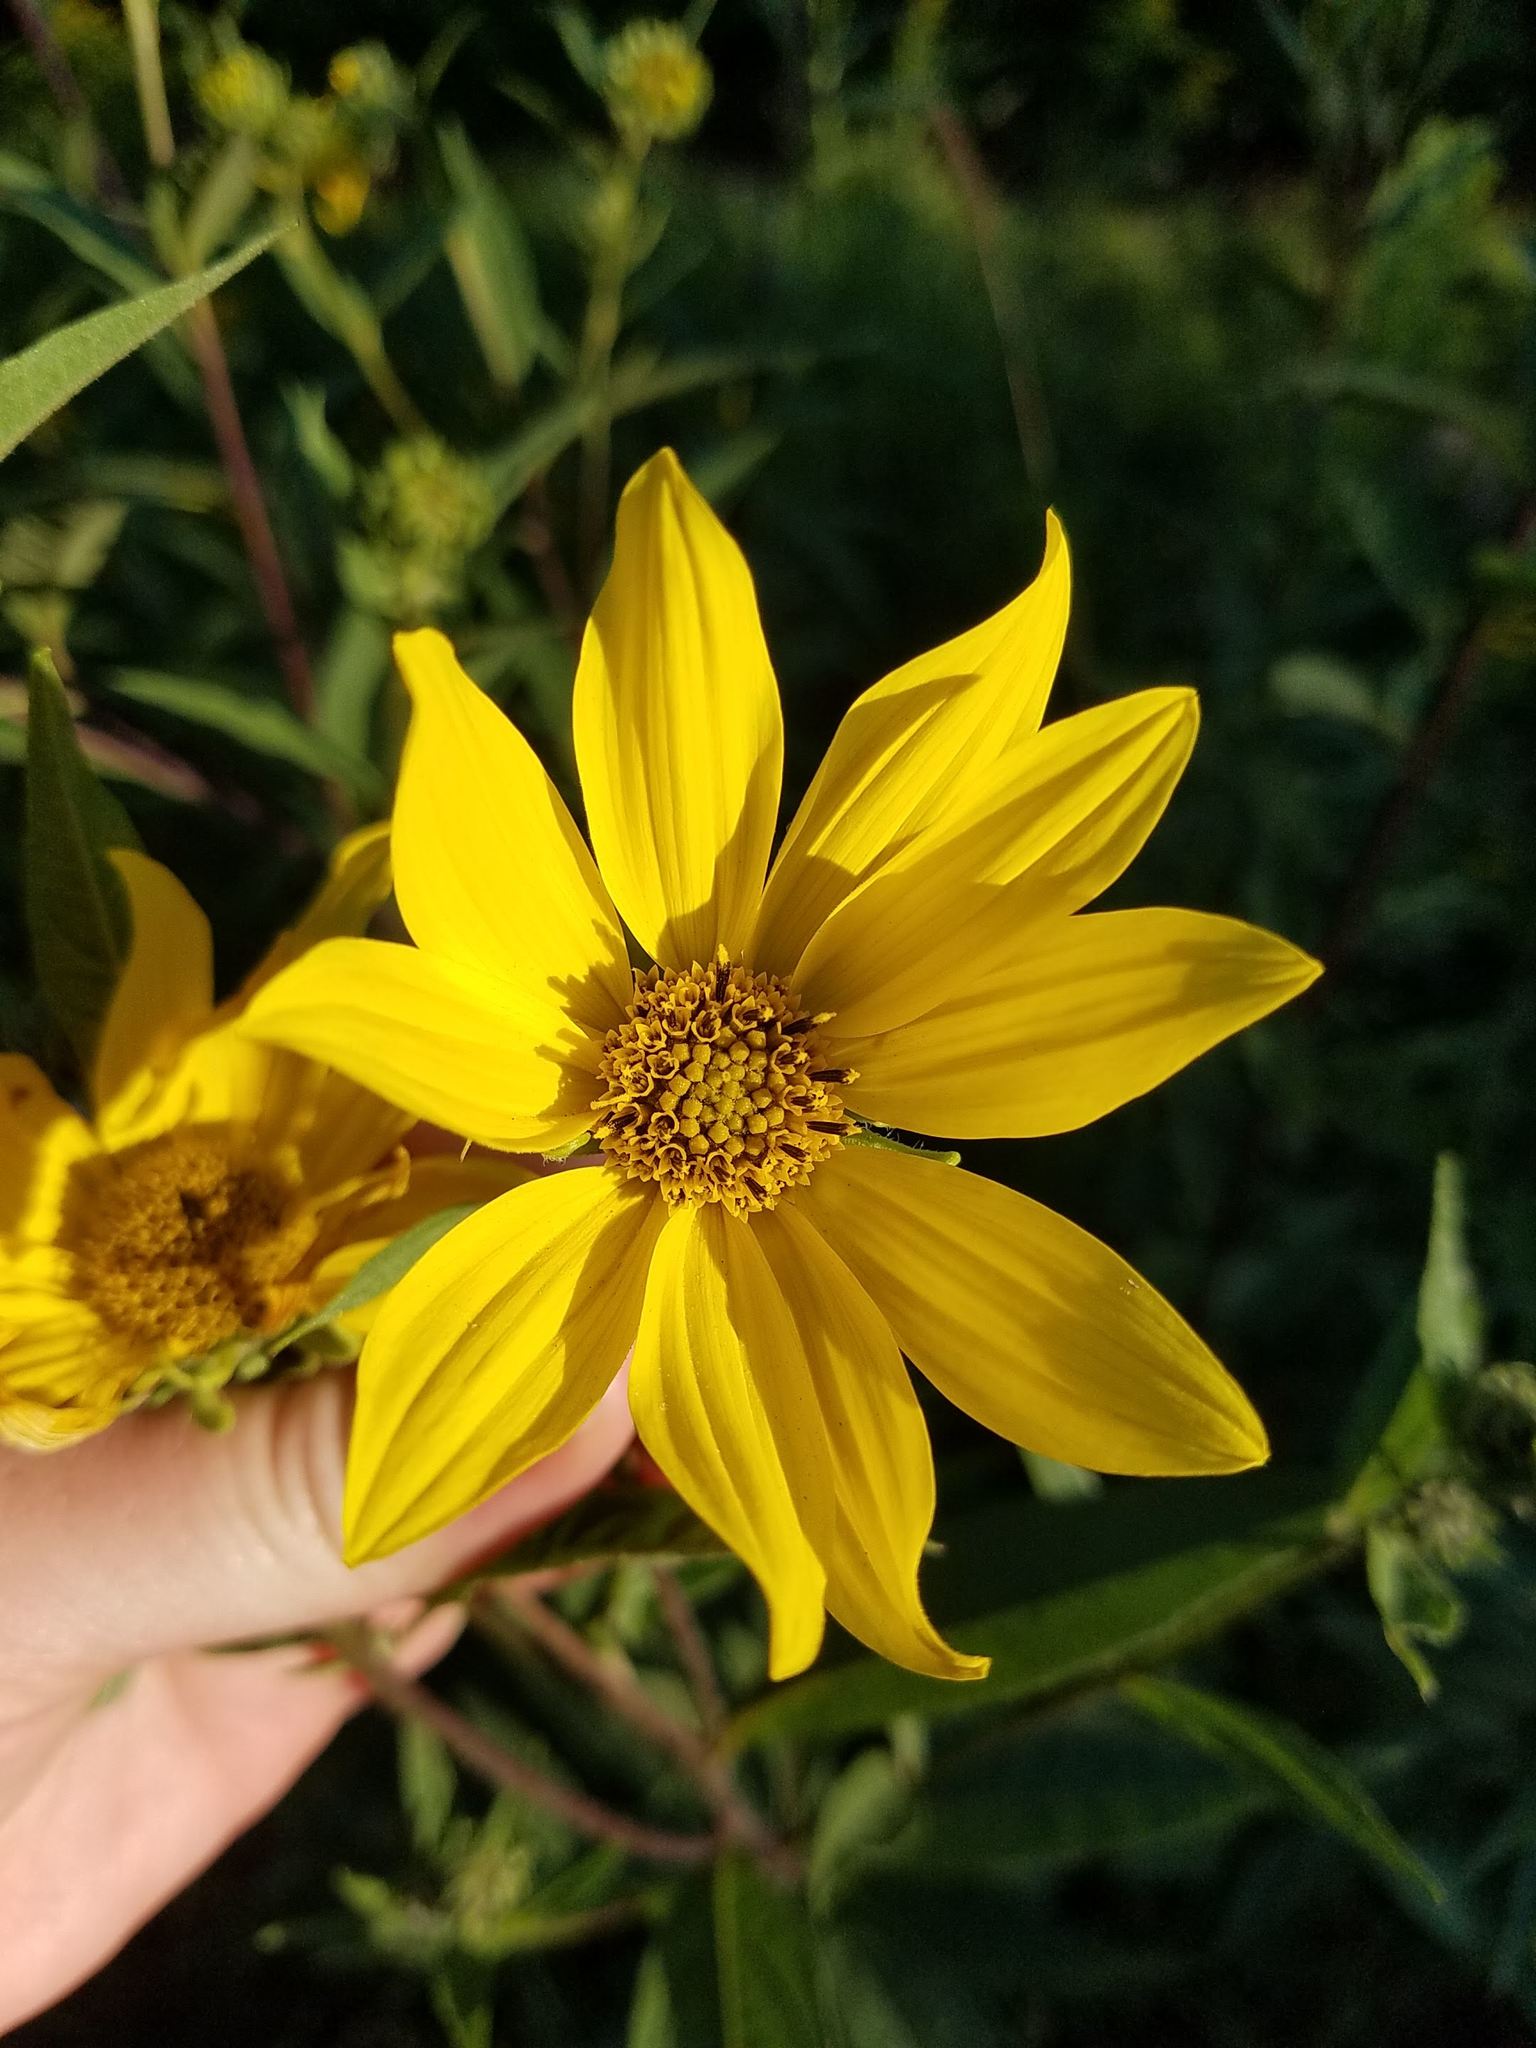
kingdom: Plantae
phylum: Tracheophyta
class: Magnoliopsida
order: Asterales
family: Asteraceae
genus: Helianthus
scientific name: Helianthus giganteus
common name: Giant sunflower
